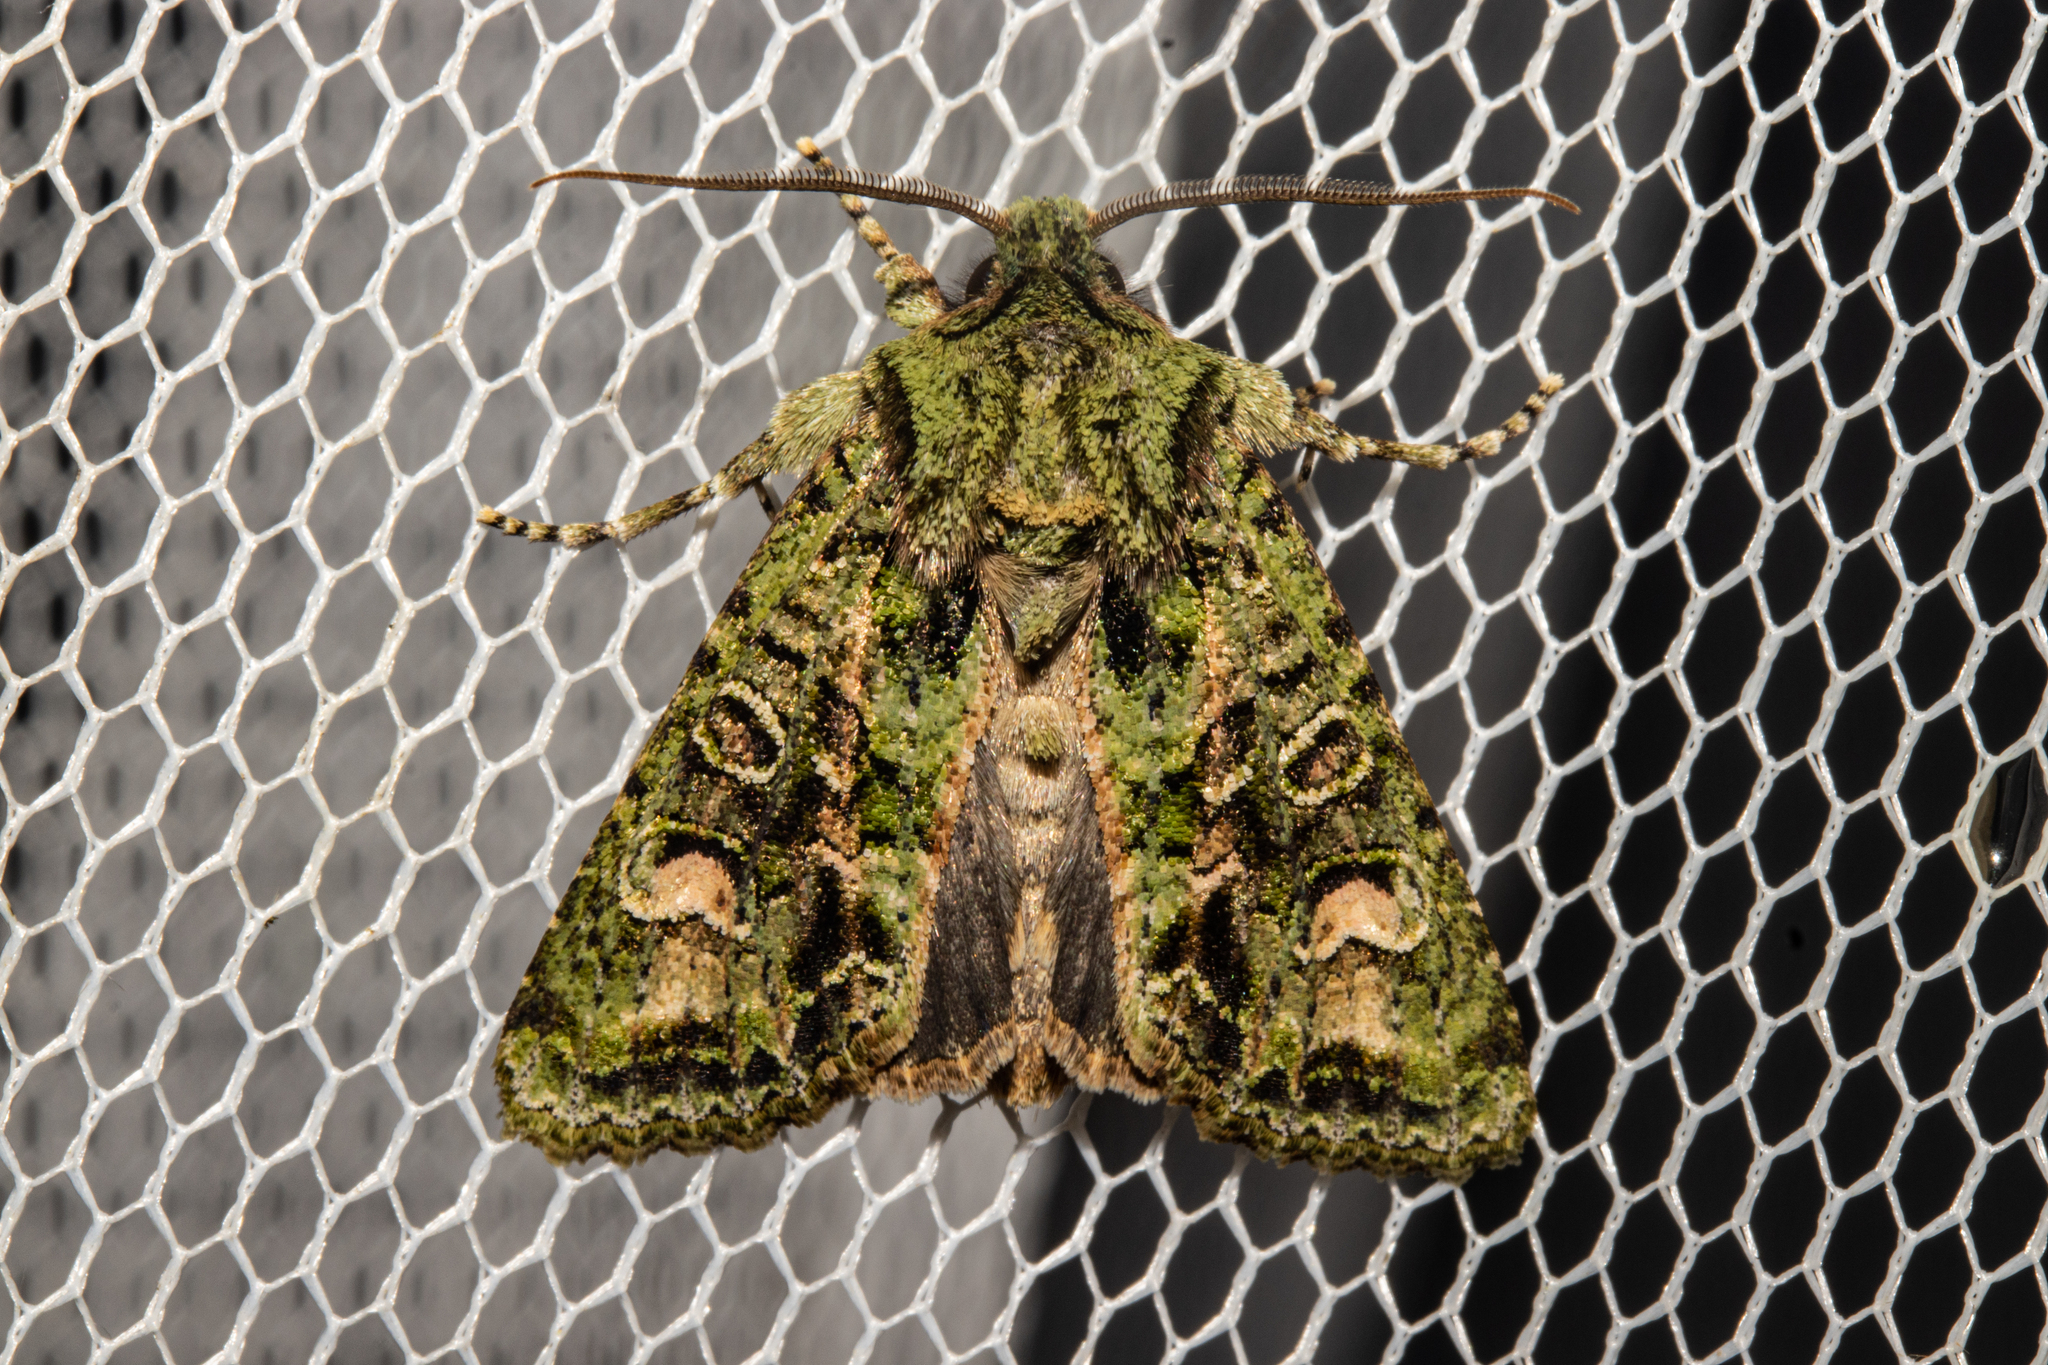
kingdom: Animalia
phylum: Arthropoda
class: Insecta
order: Lepidoptera
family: Noctuidae
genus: Ichneutica
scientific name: Ichneutica
